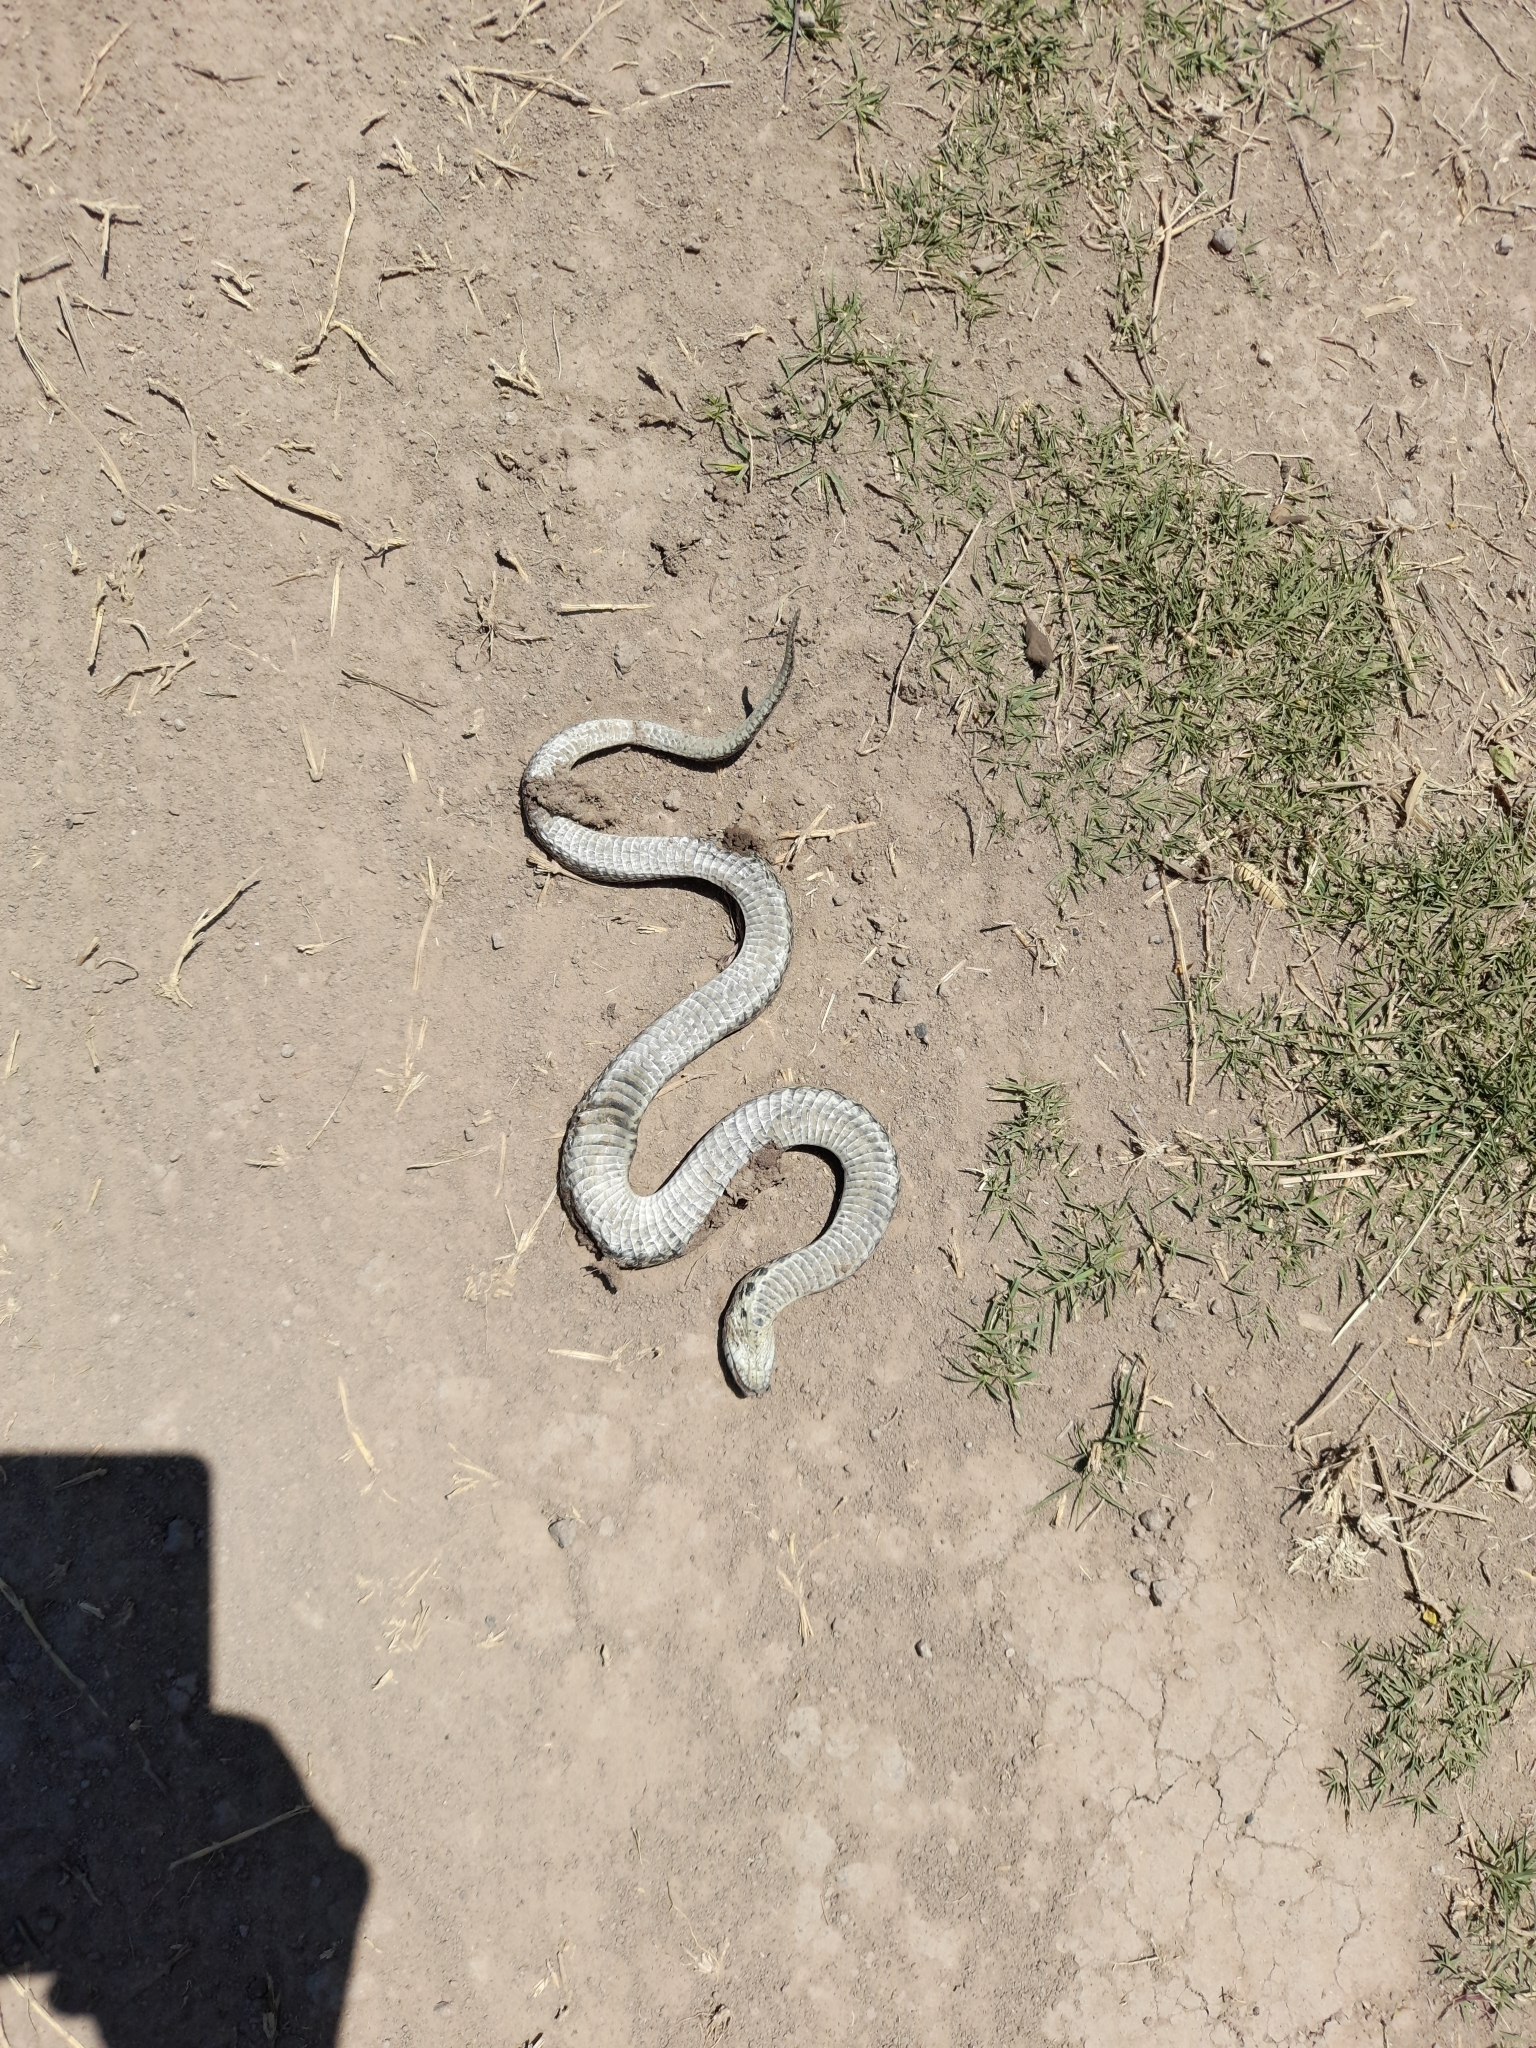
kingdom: Animalia
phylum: Chordata
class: Squamata
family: Colubridae
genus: Xenodon
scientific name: Xenodon merremii
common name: Wagler's snake
